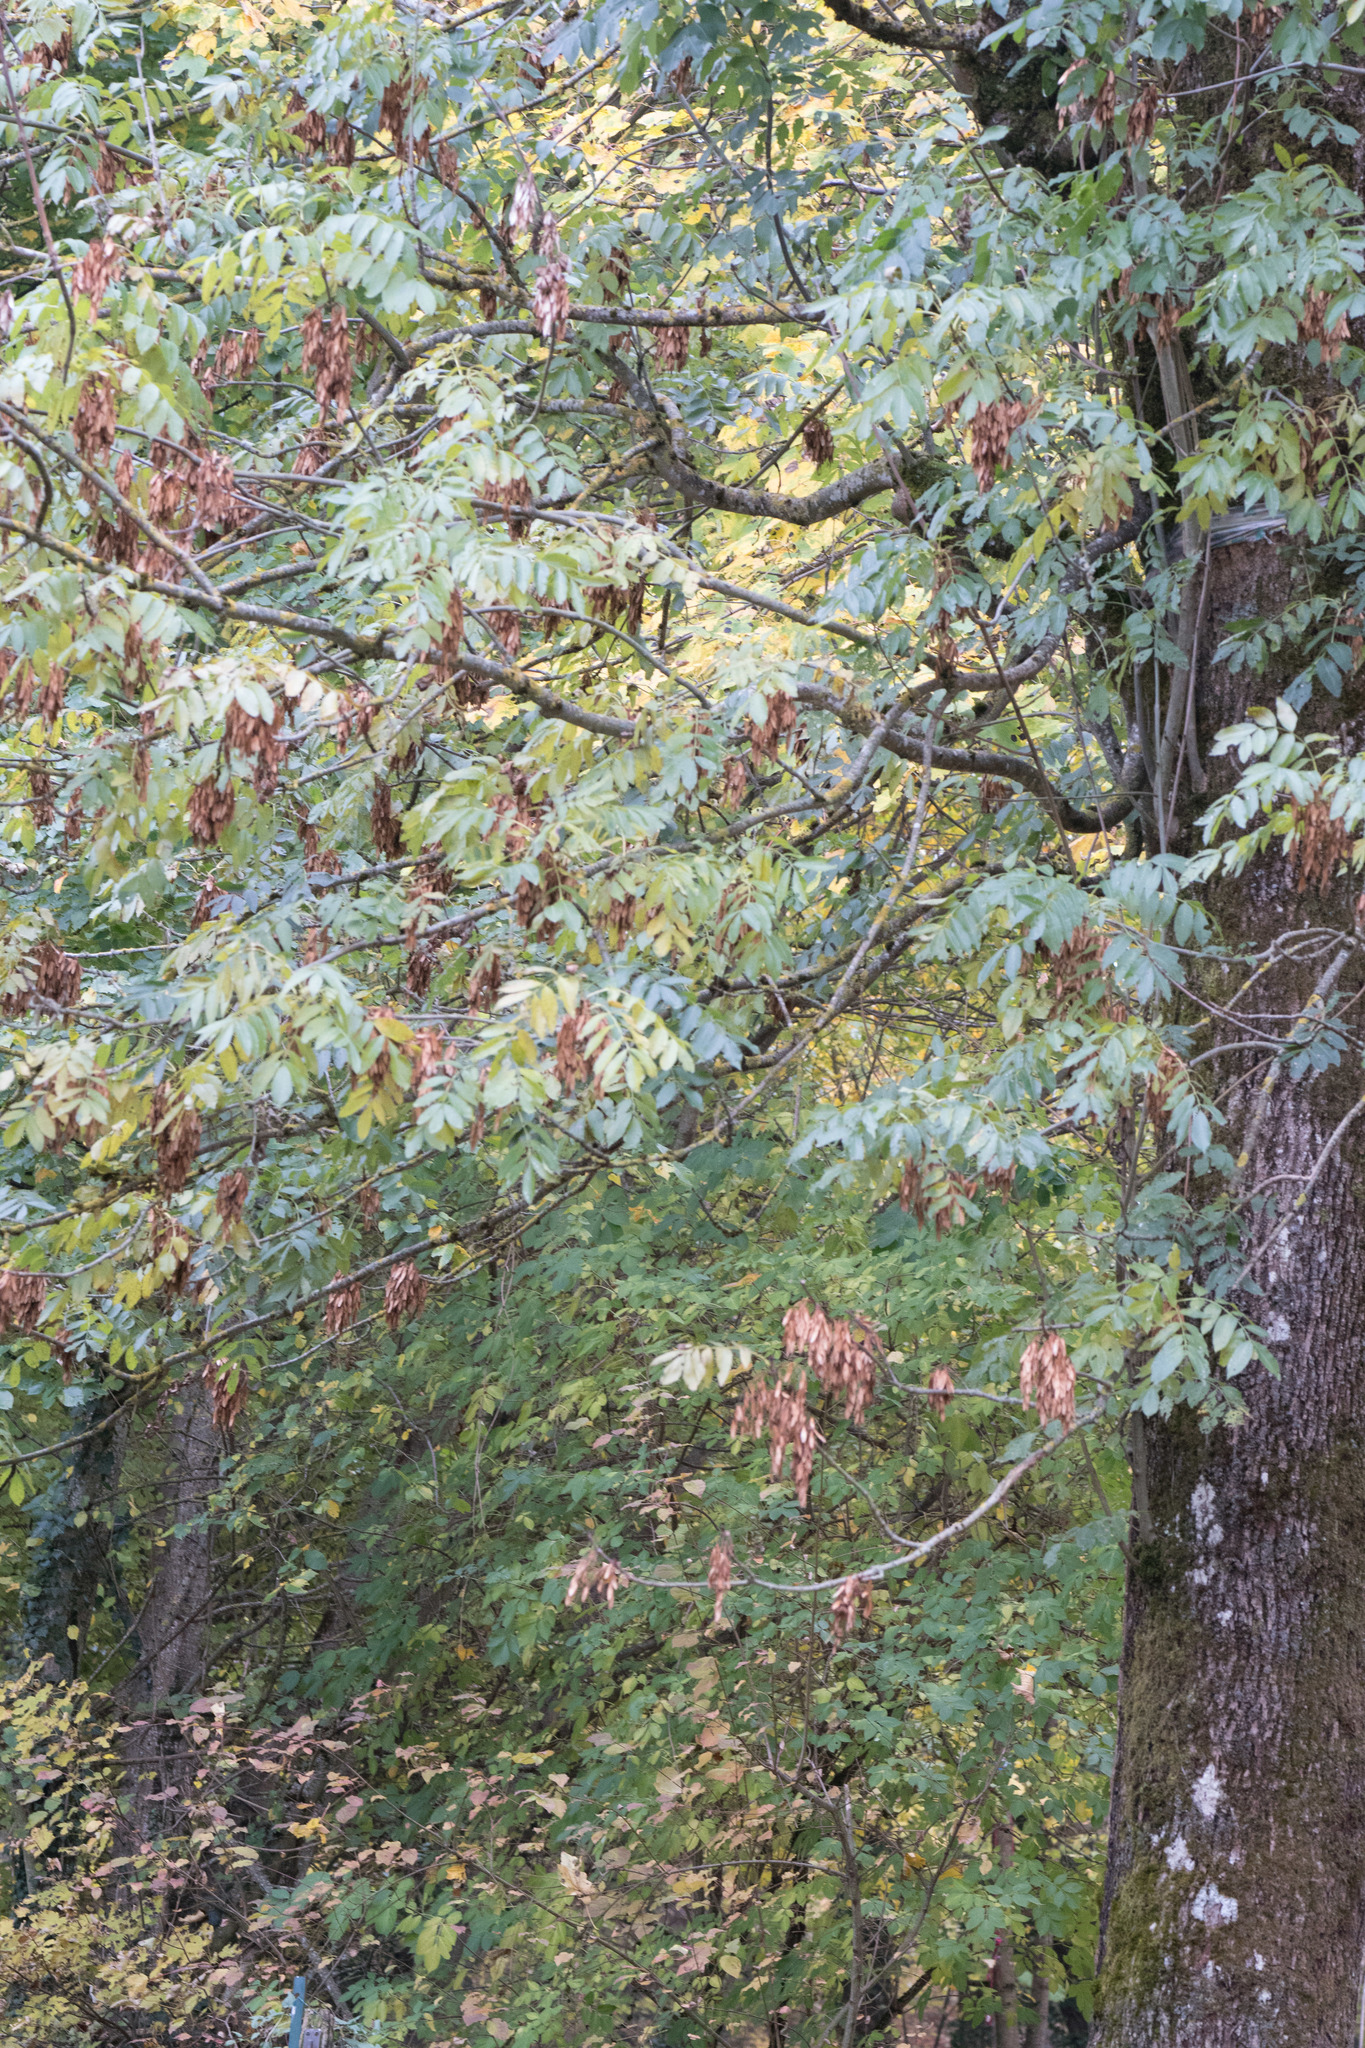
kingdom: Plantae
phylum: Tracheophyta
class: Magnoliopsida
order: Lamiales
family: Oleaceae
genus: Fraxinus
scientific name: Fraxinus excelsior
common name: European ash
